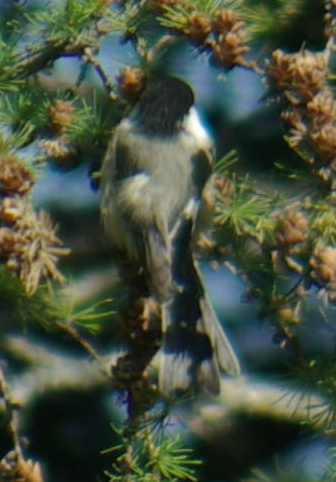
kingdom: Animalia
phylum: Chordata
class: Aves
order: Passeriformes
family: Paridae
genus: Poecile
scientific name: Poecile atricapillus
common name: Black-capped chickadee
